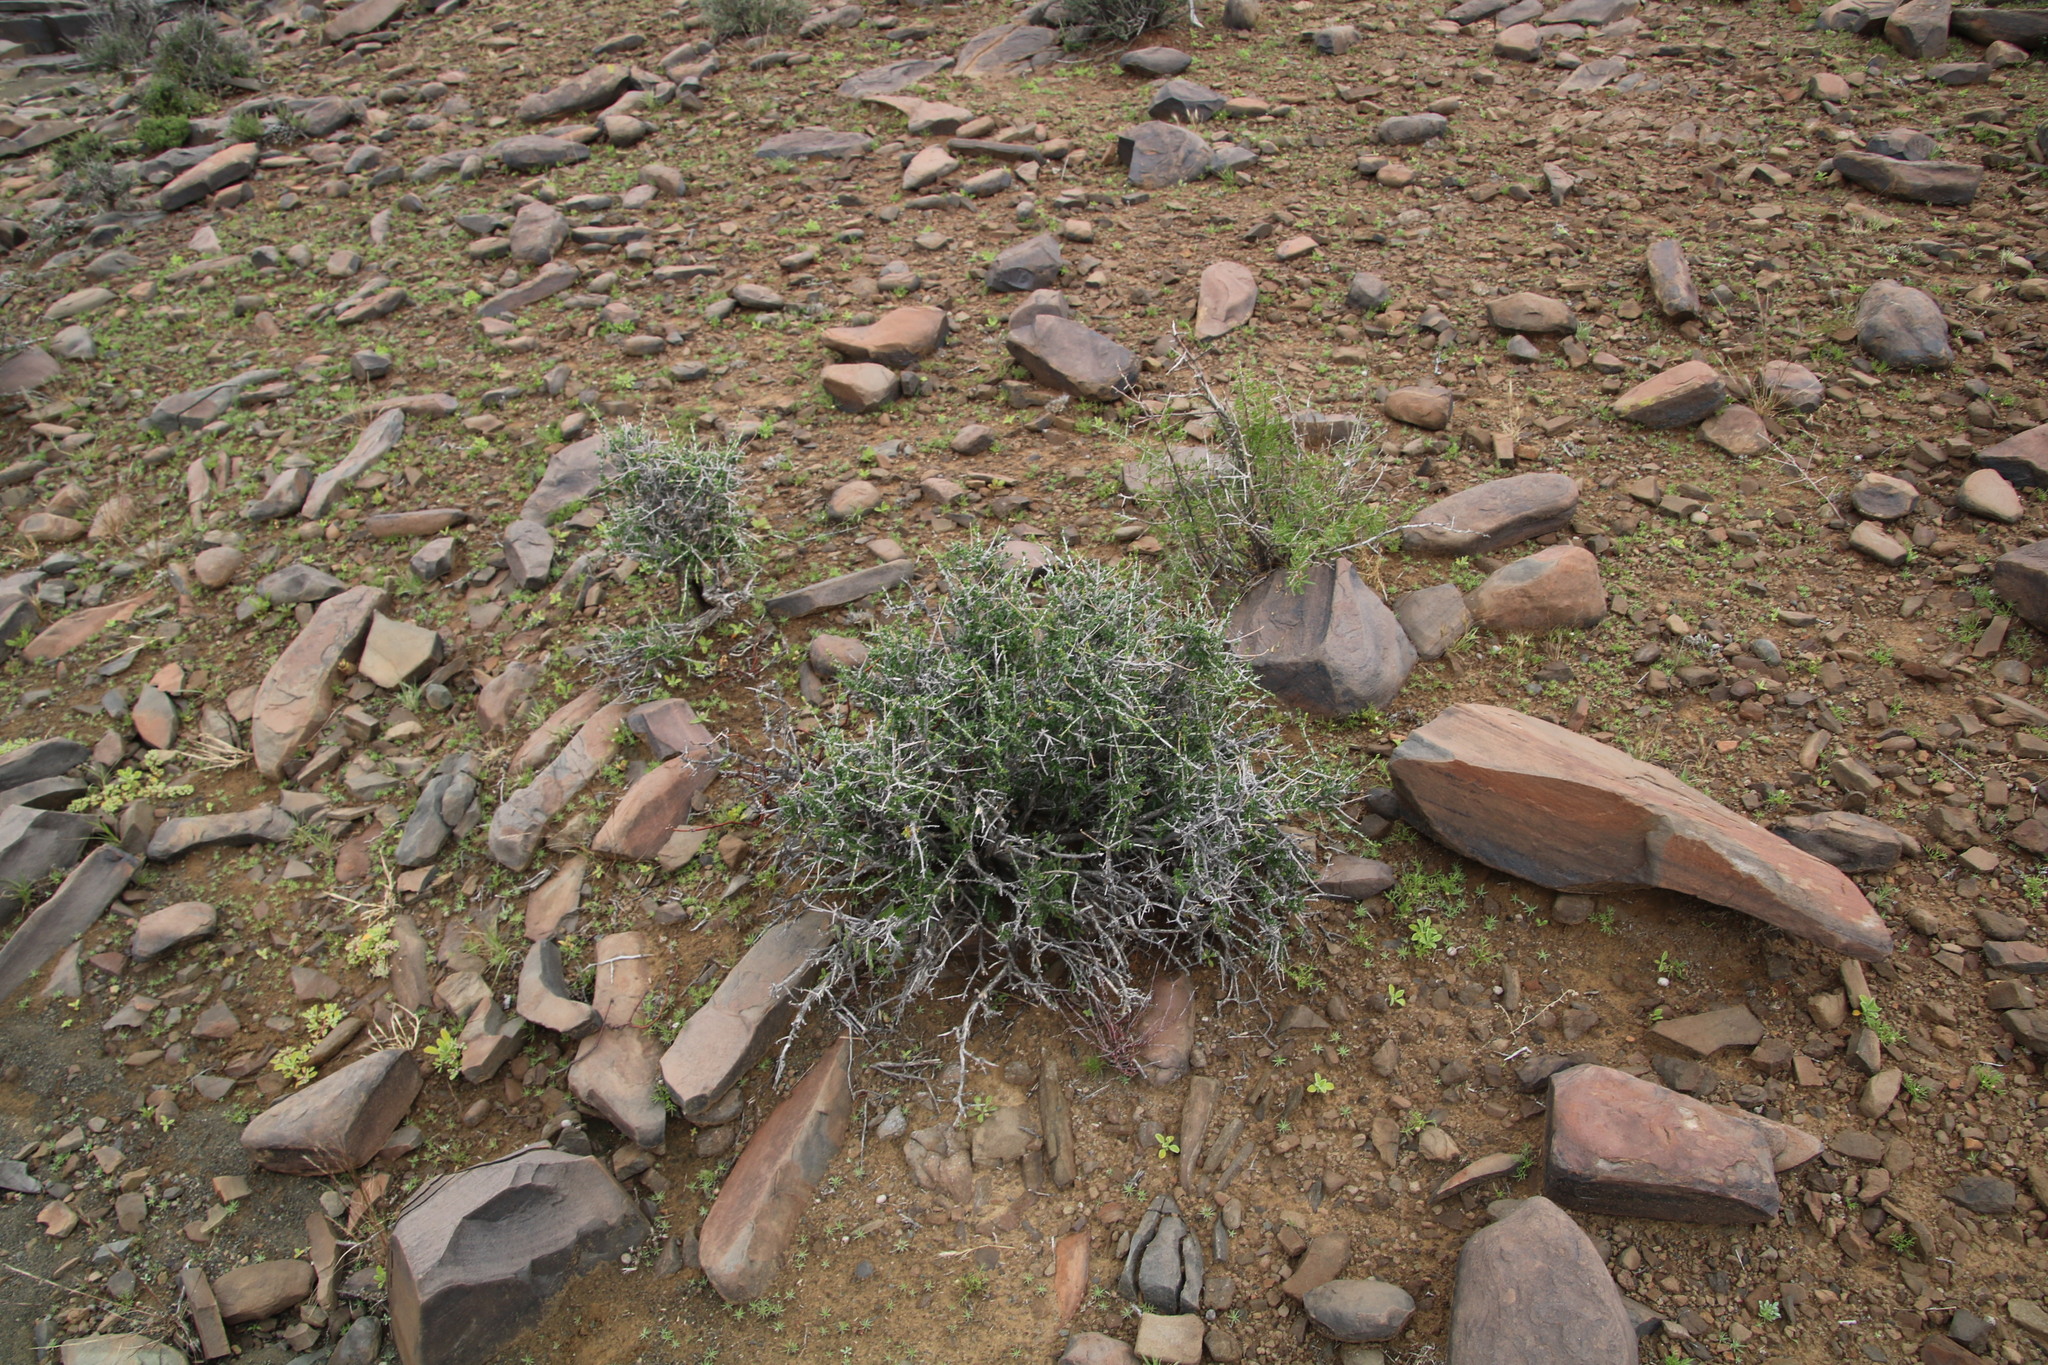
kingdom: Plantae
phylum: Tracheophyta
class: Magnoliopsida
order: Asterales
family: Asteraceae
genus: Pteronia
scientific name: Pteronia viscosa
